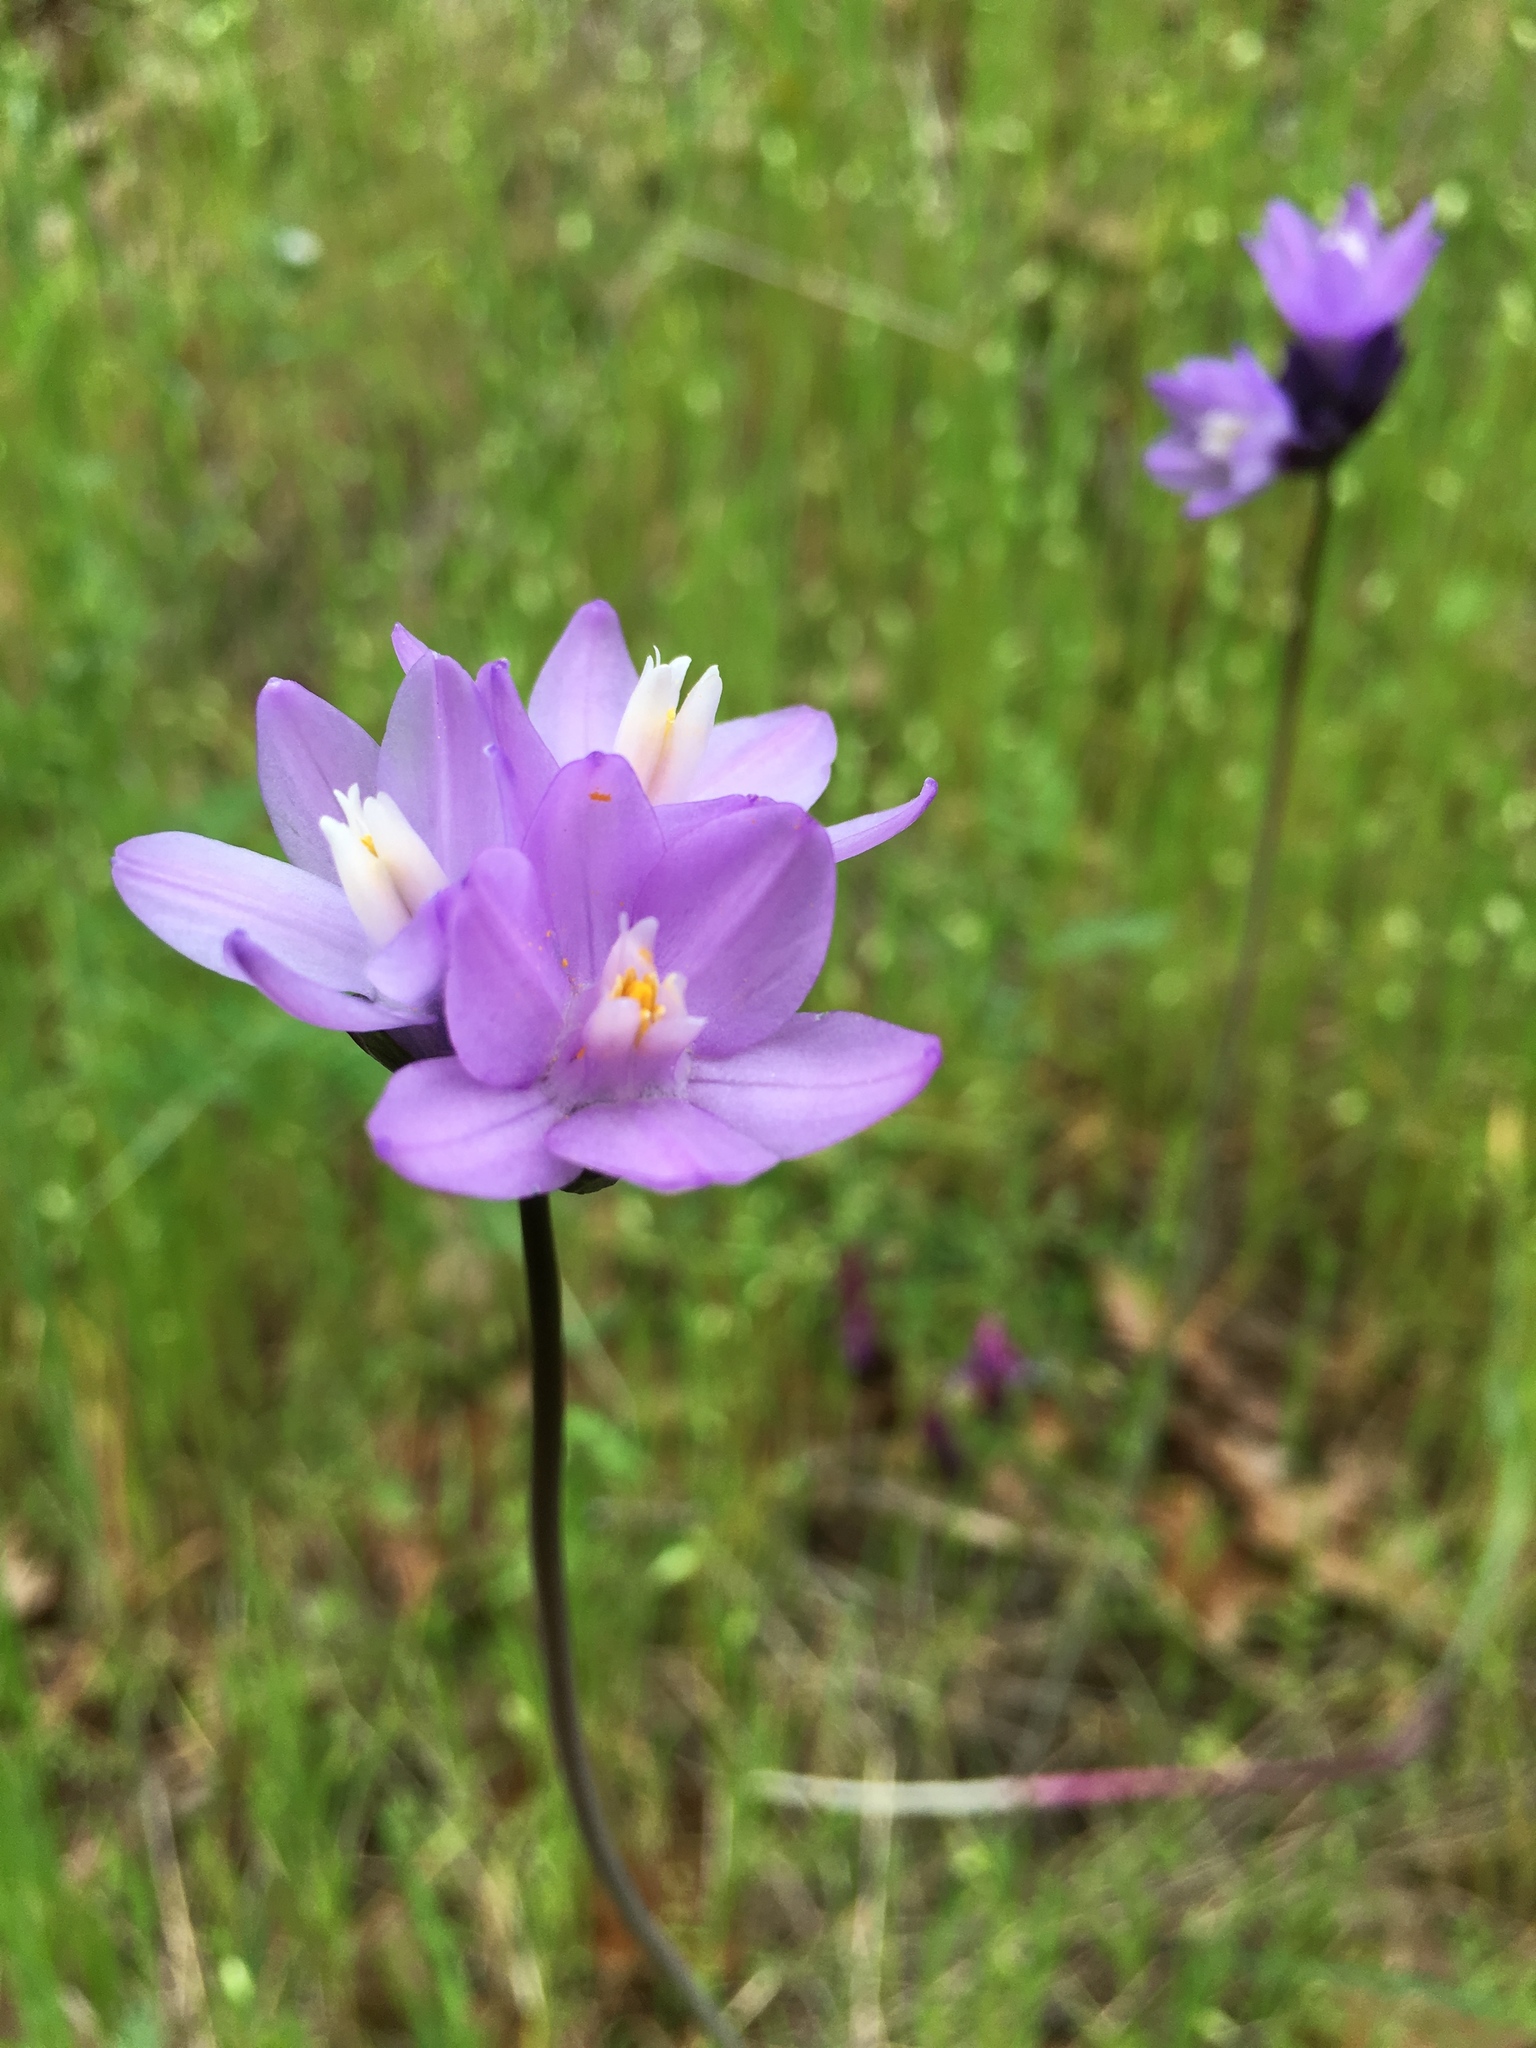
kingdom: Plantae
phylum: Tracheophyta
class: Liliopsida
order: Asparagales
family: Asparagaceae
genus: Dipterostemon
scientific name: Dipterostemon capitatus
